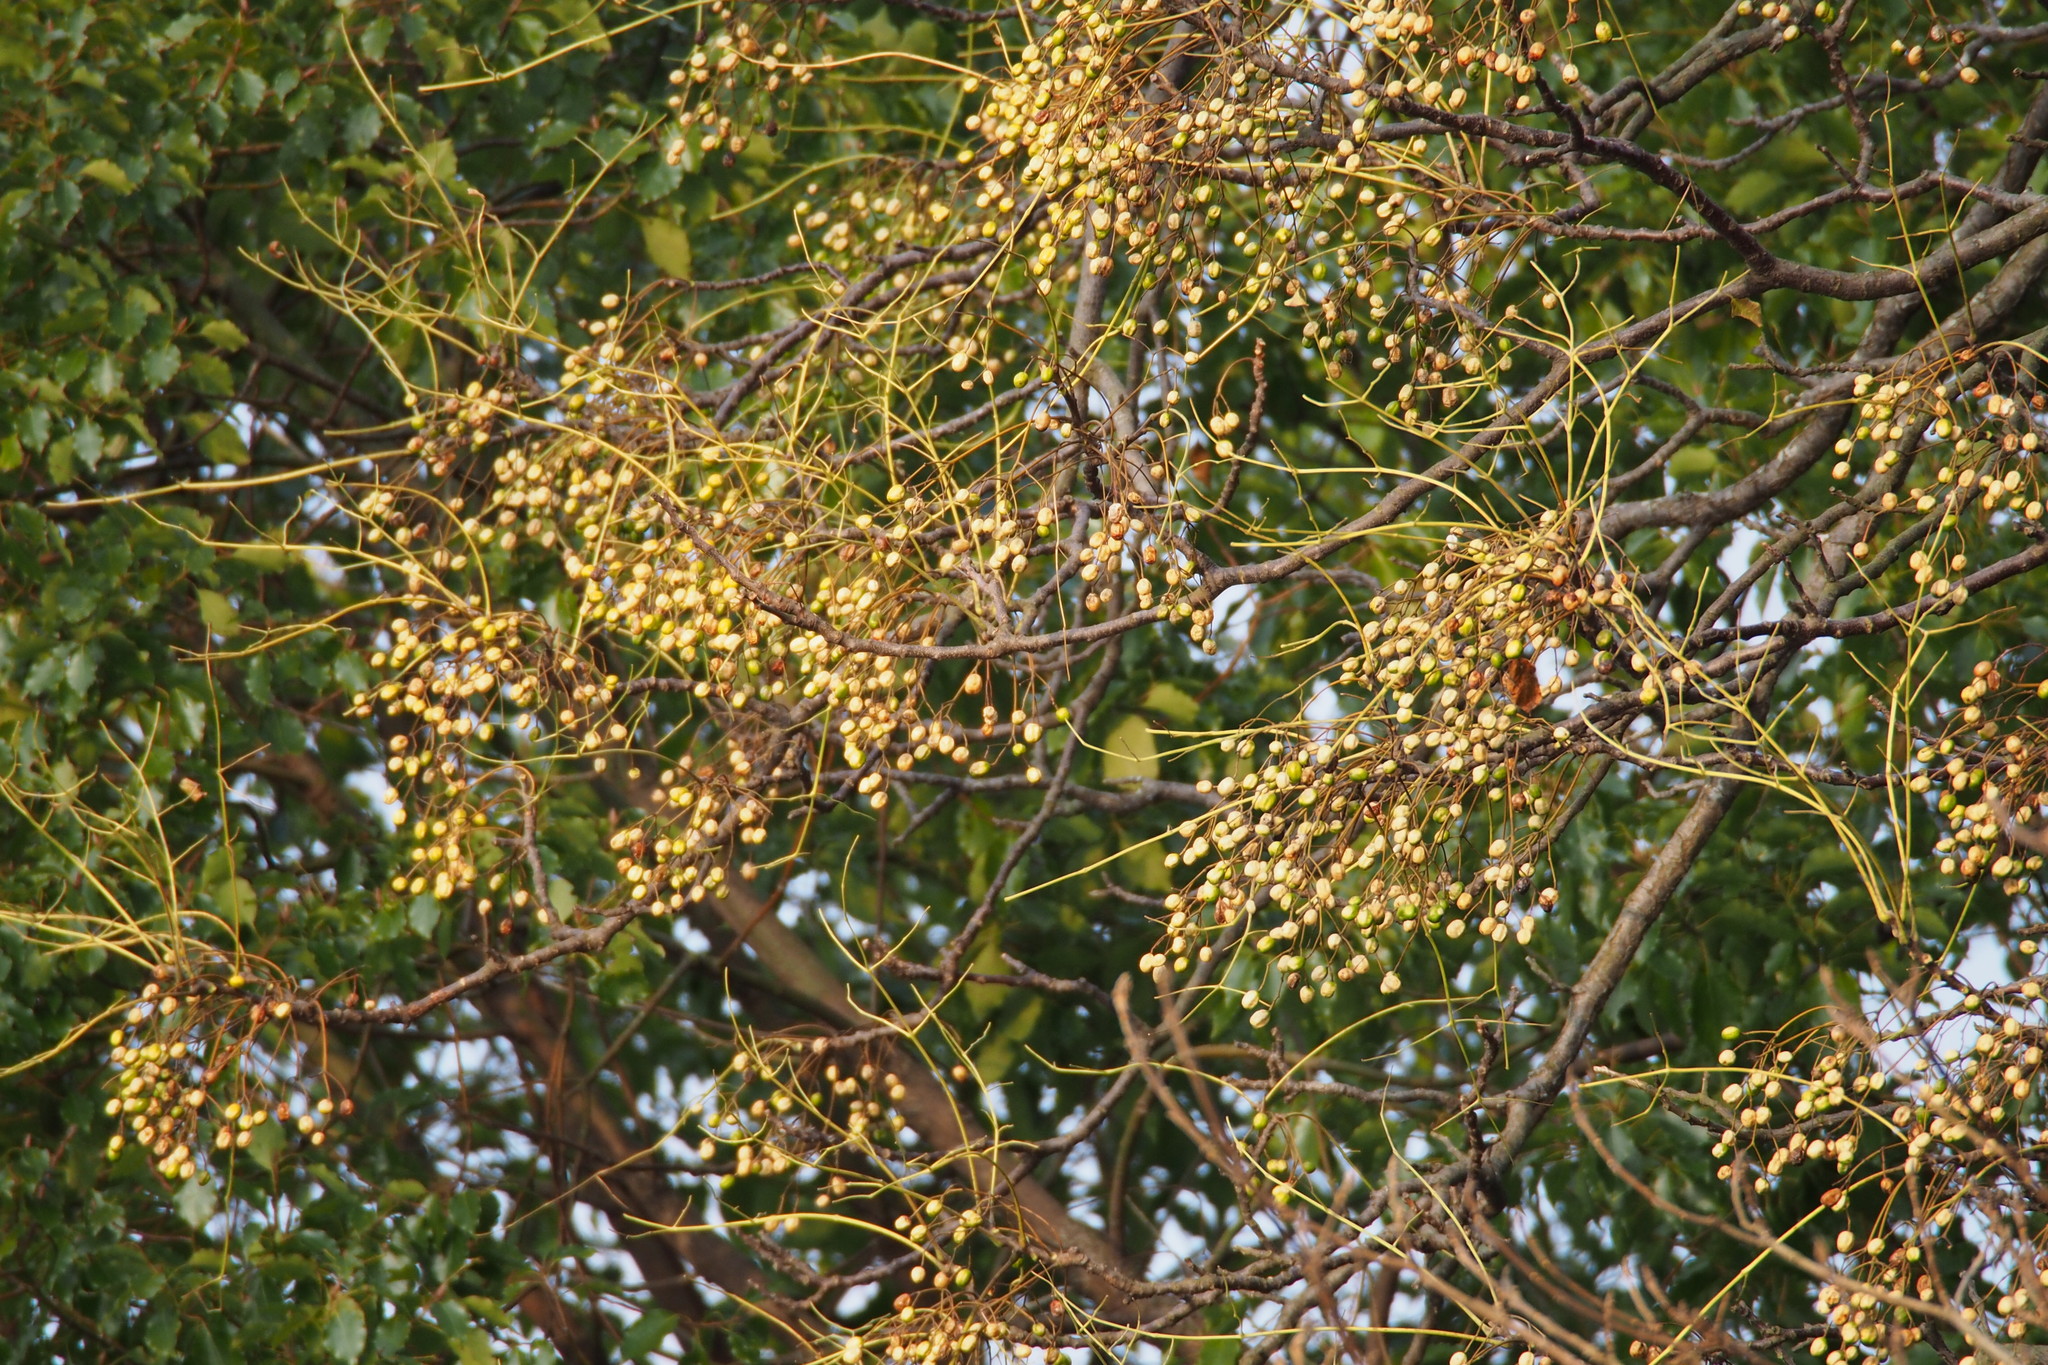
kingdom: Plantae
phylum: Tracheophyta
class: Magnoliopsida
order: Sapindales
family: Meliaceae
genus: Melia
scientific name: Melia azedarach
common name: Chinaberrytree
